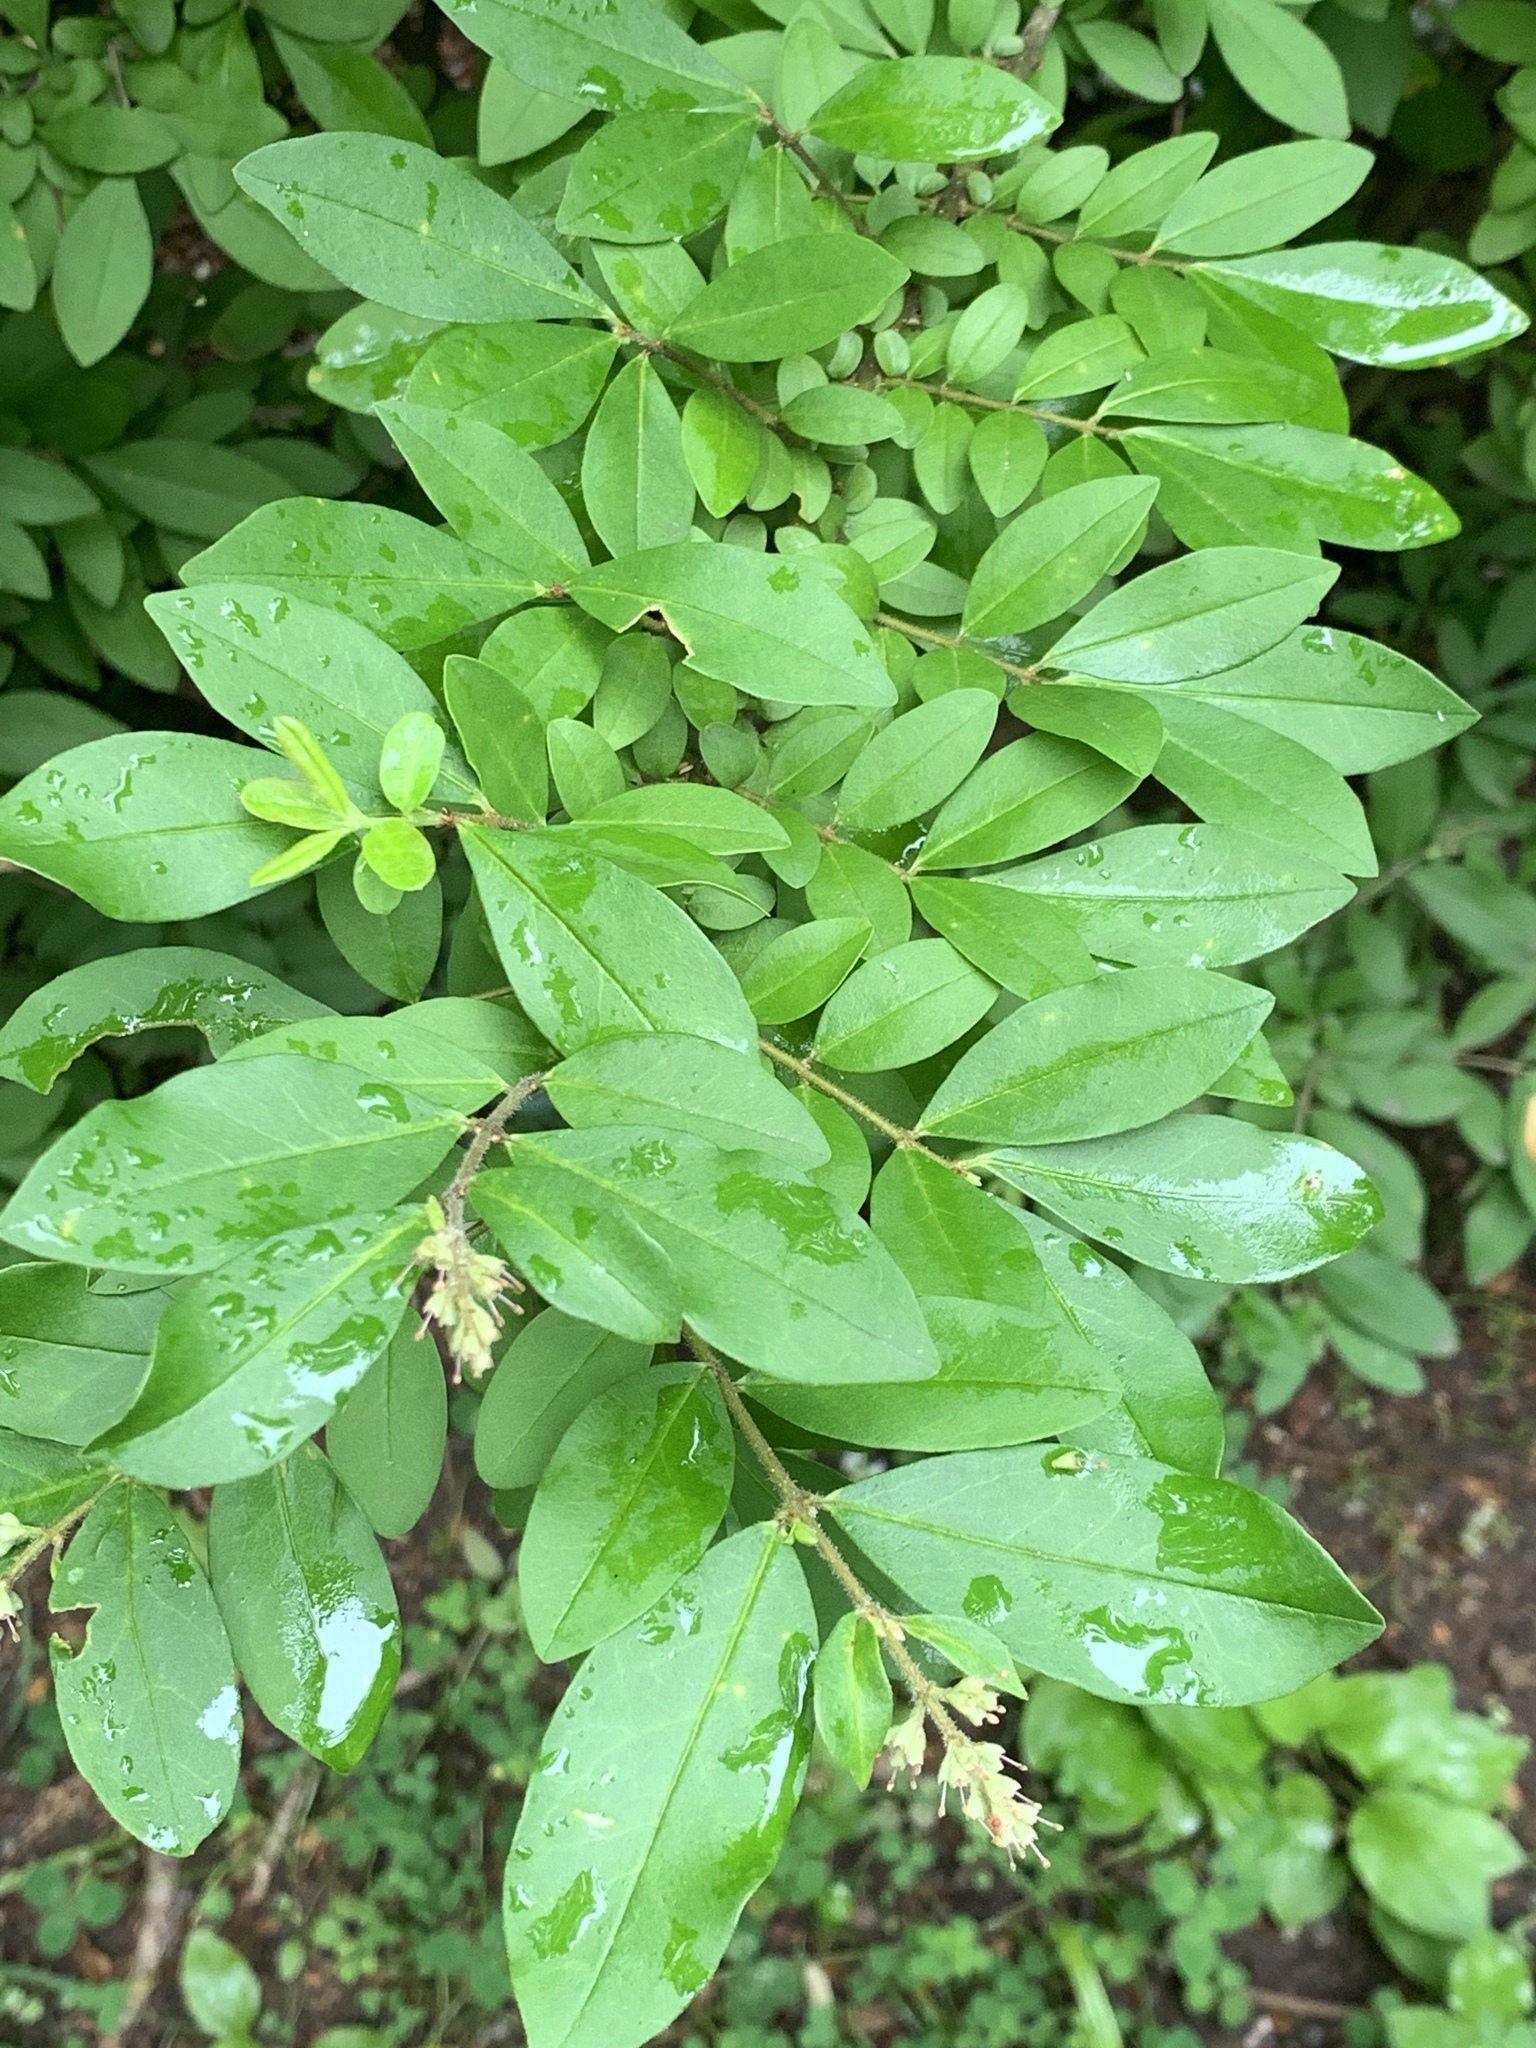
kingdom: Plantae
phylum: Tracheophyta
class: Magnoliopsida
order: Lamiales
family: Oleaceae
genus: Ligustrum
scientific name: Ligustrum obtusifolium
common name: Border privet
